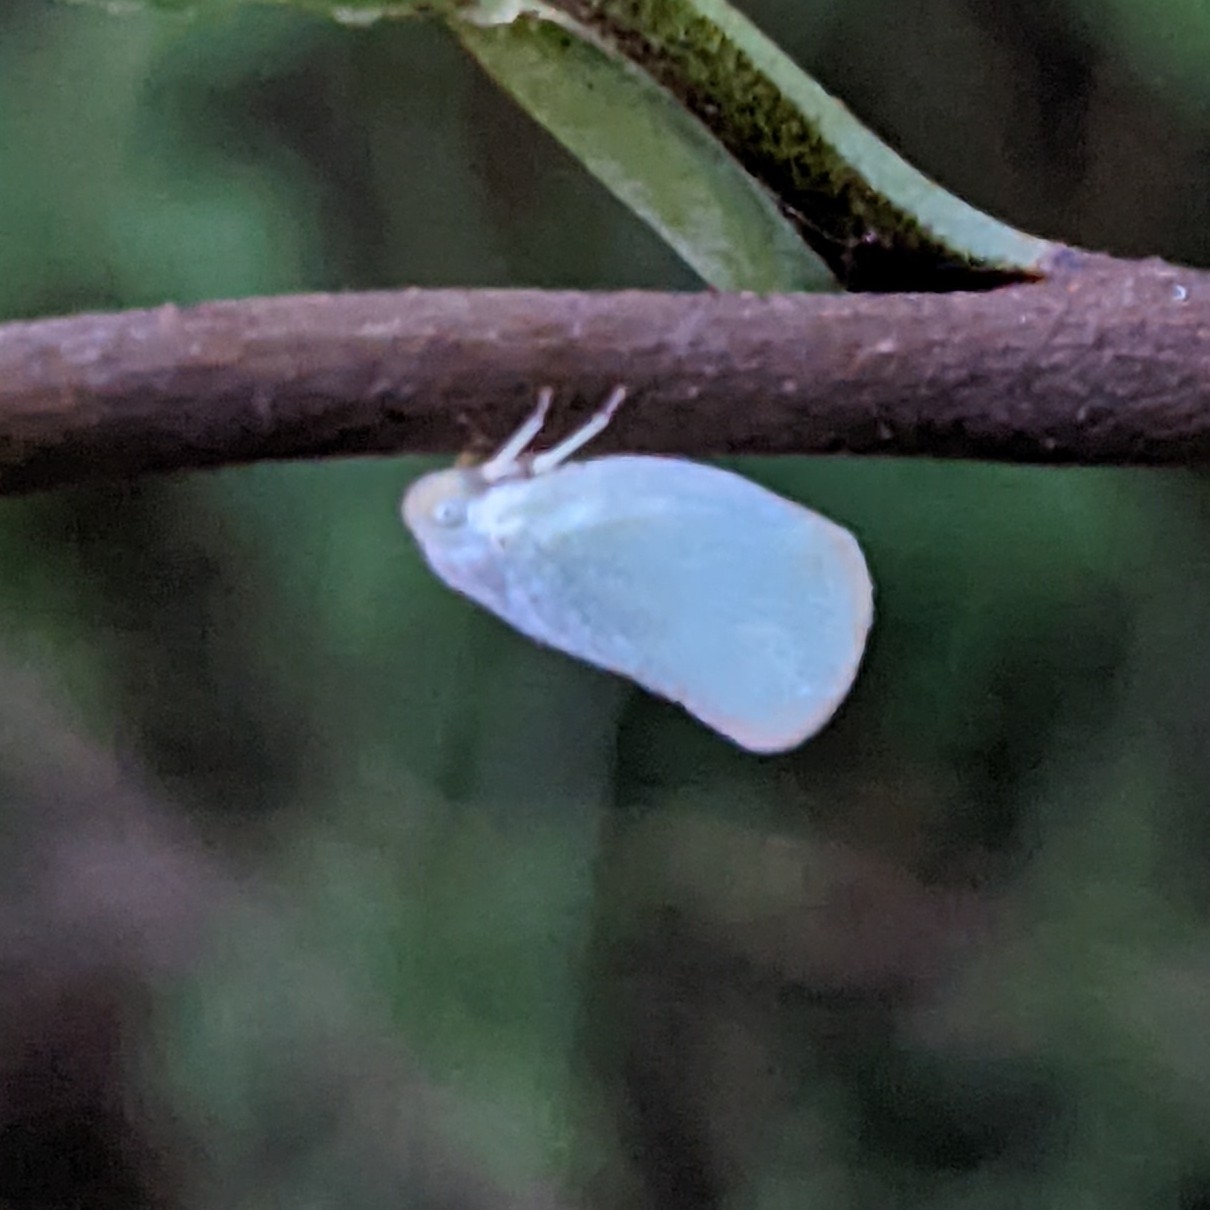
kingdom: Animalia
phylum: Arthropoda
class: Insecta
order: Hemiptera
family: Flatidae
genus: Ormenoides
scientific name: Ormenoides venusta
